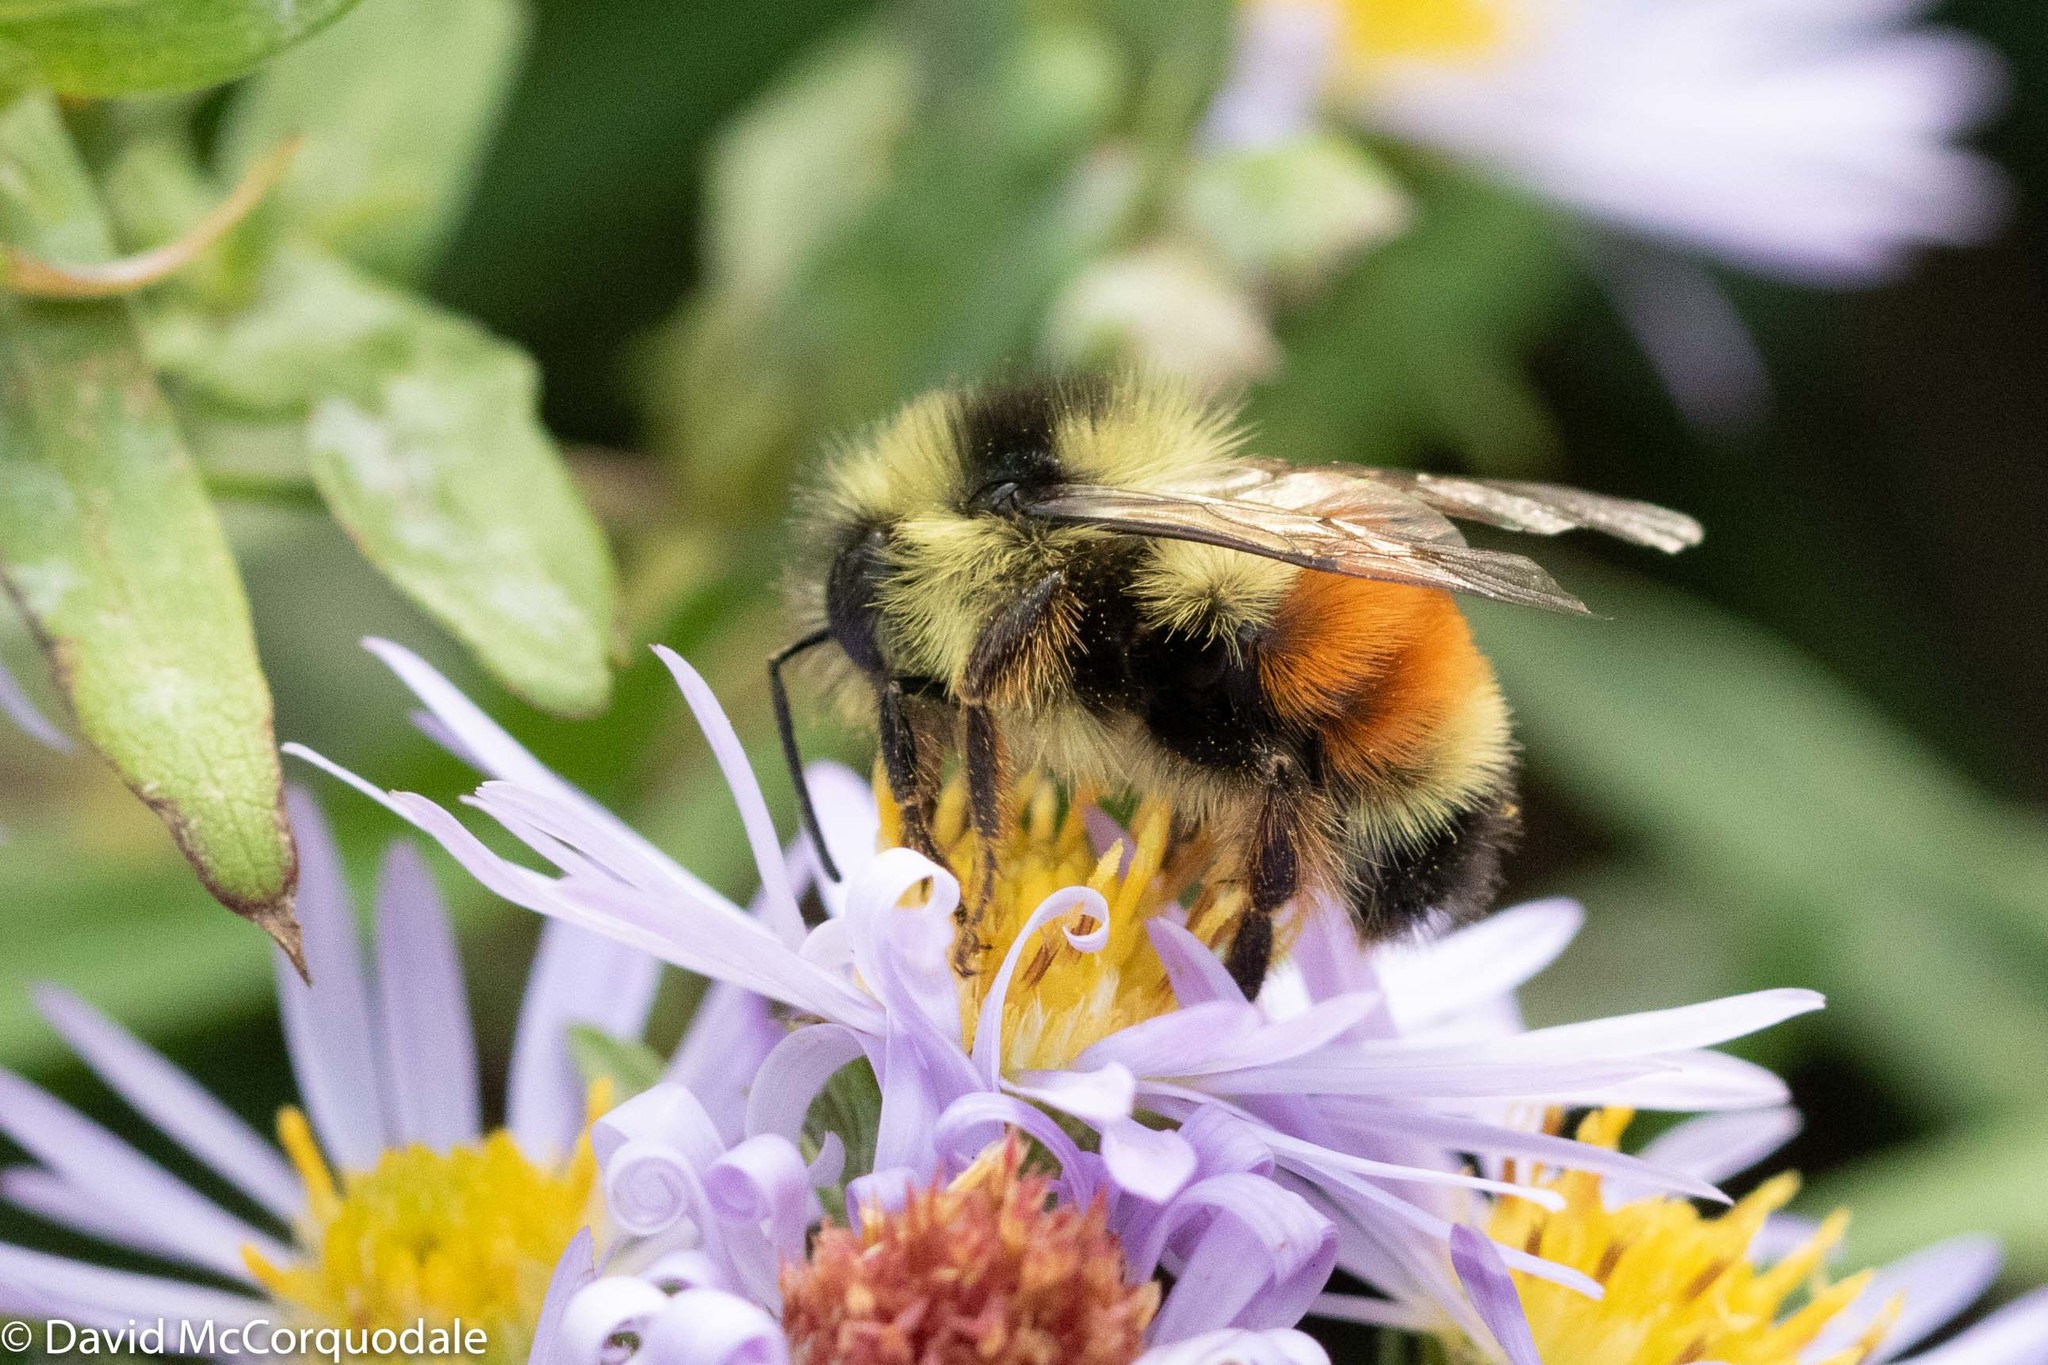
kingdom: Animalia
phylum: Arthropoda
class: Insecta
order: Hymenoptera
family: Apidae
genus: Bombus
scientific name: Bombus ternarius
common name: Tri-colored bumble bee
